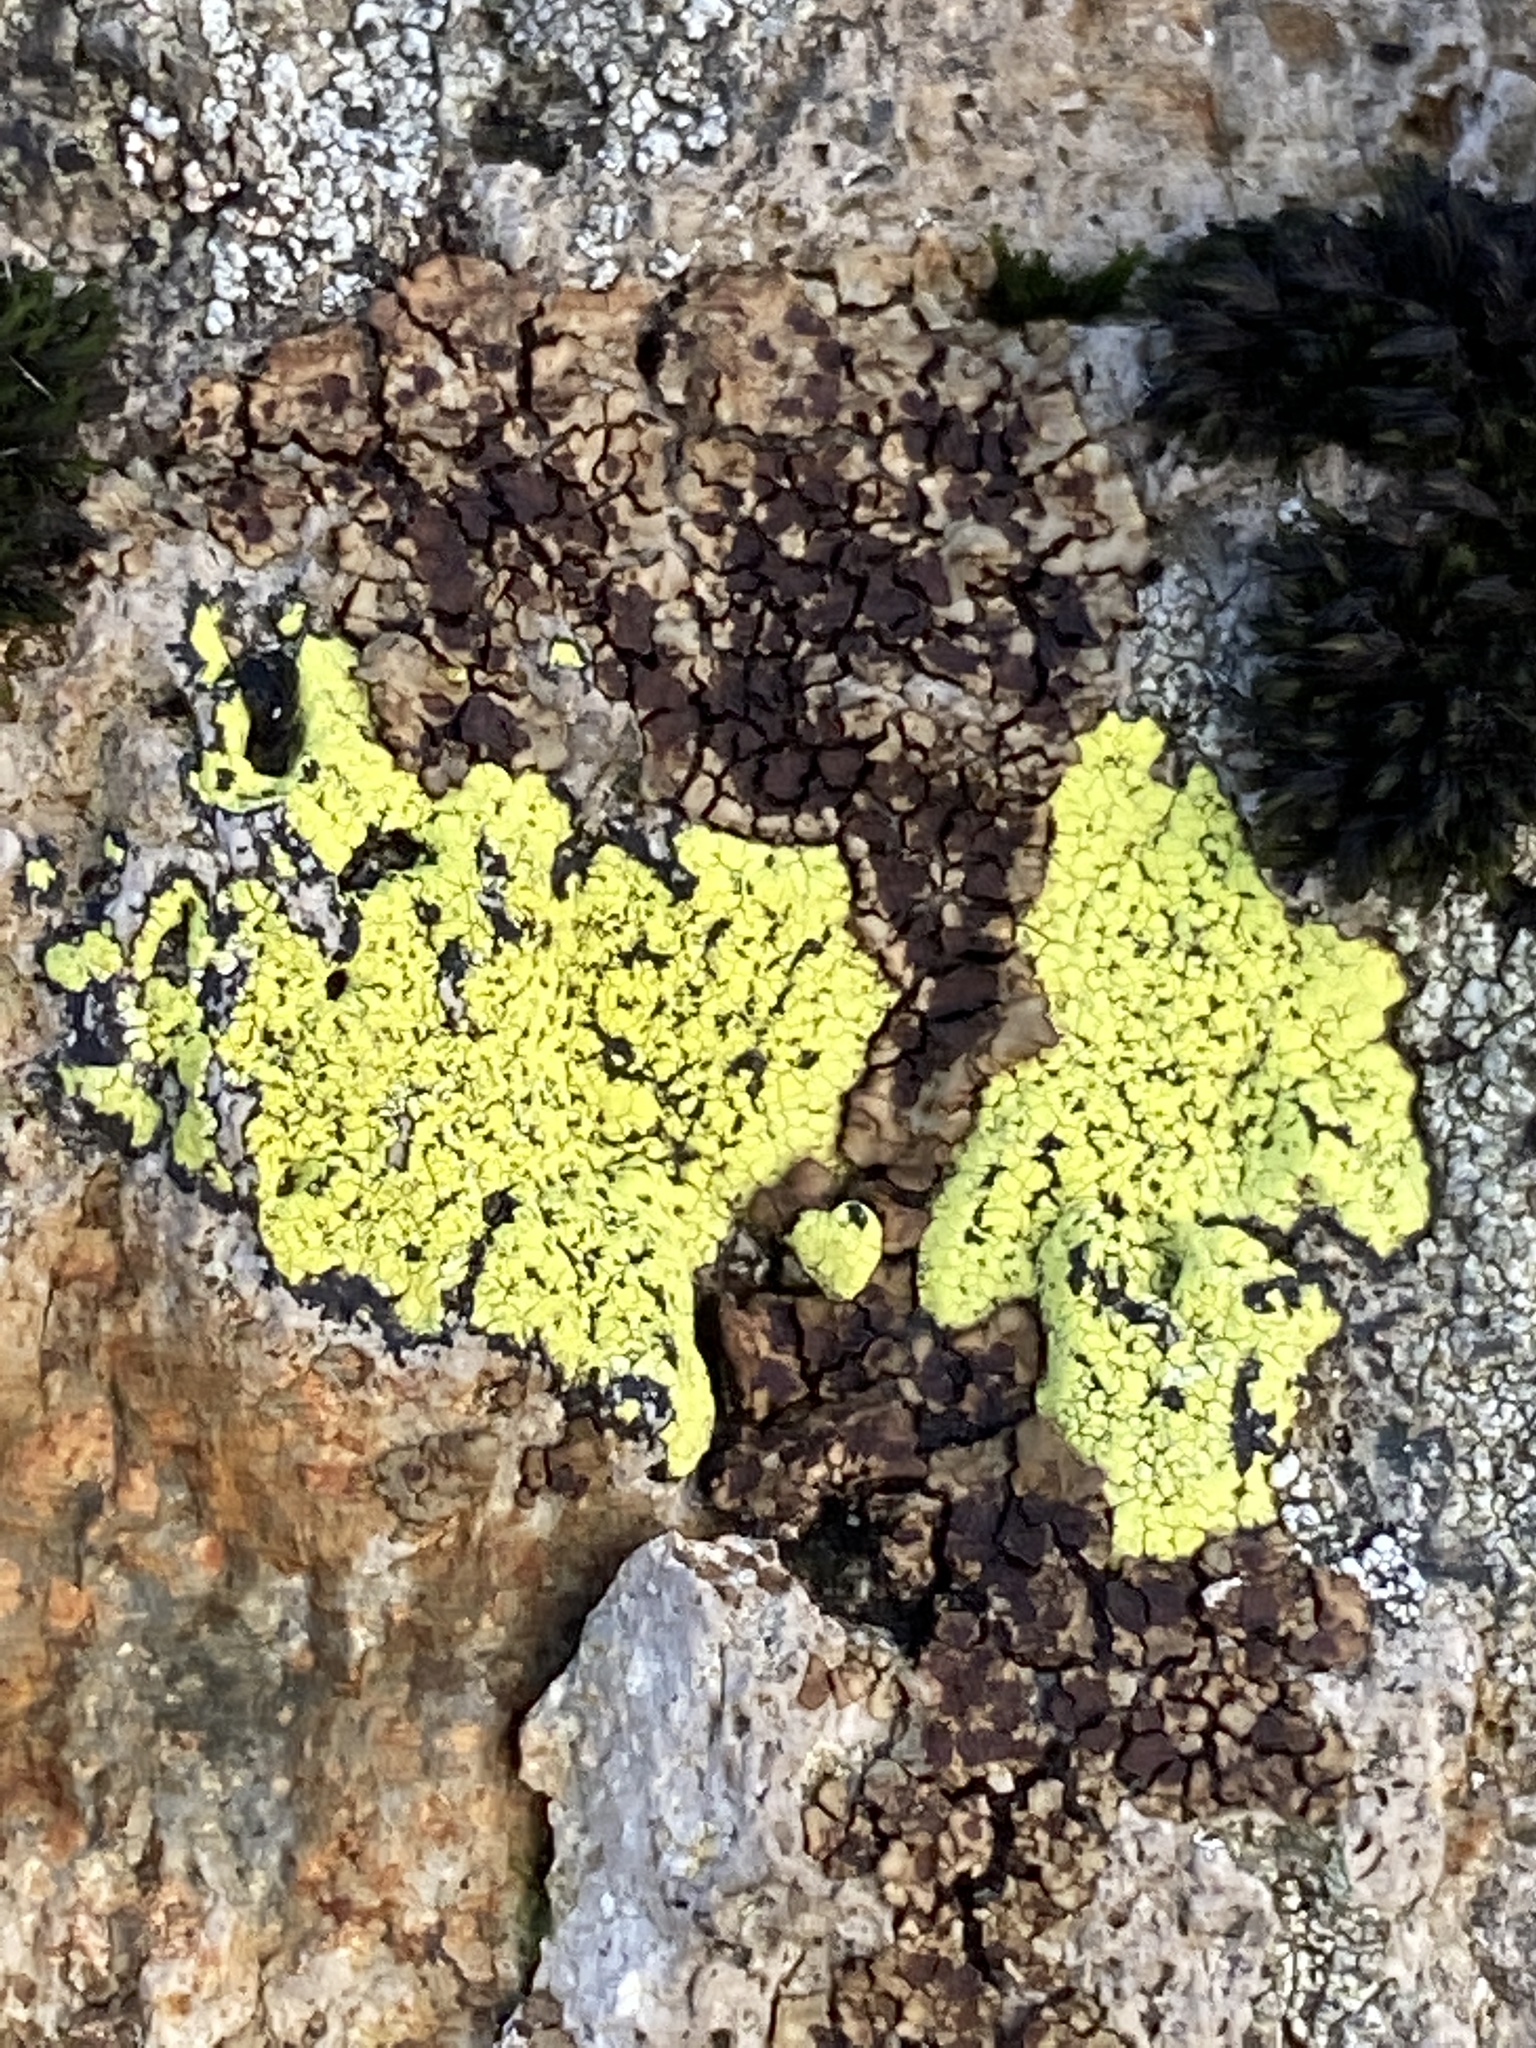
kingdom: Fungi
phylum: Ascomycota
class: Lecanoromycetes
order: Rhizocarpales
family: Rhizocarpaceae
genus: Rhizocarpon
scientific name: Rhizocarpon geographicum
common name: Yellow map lichen
